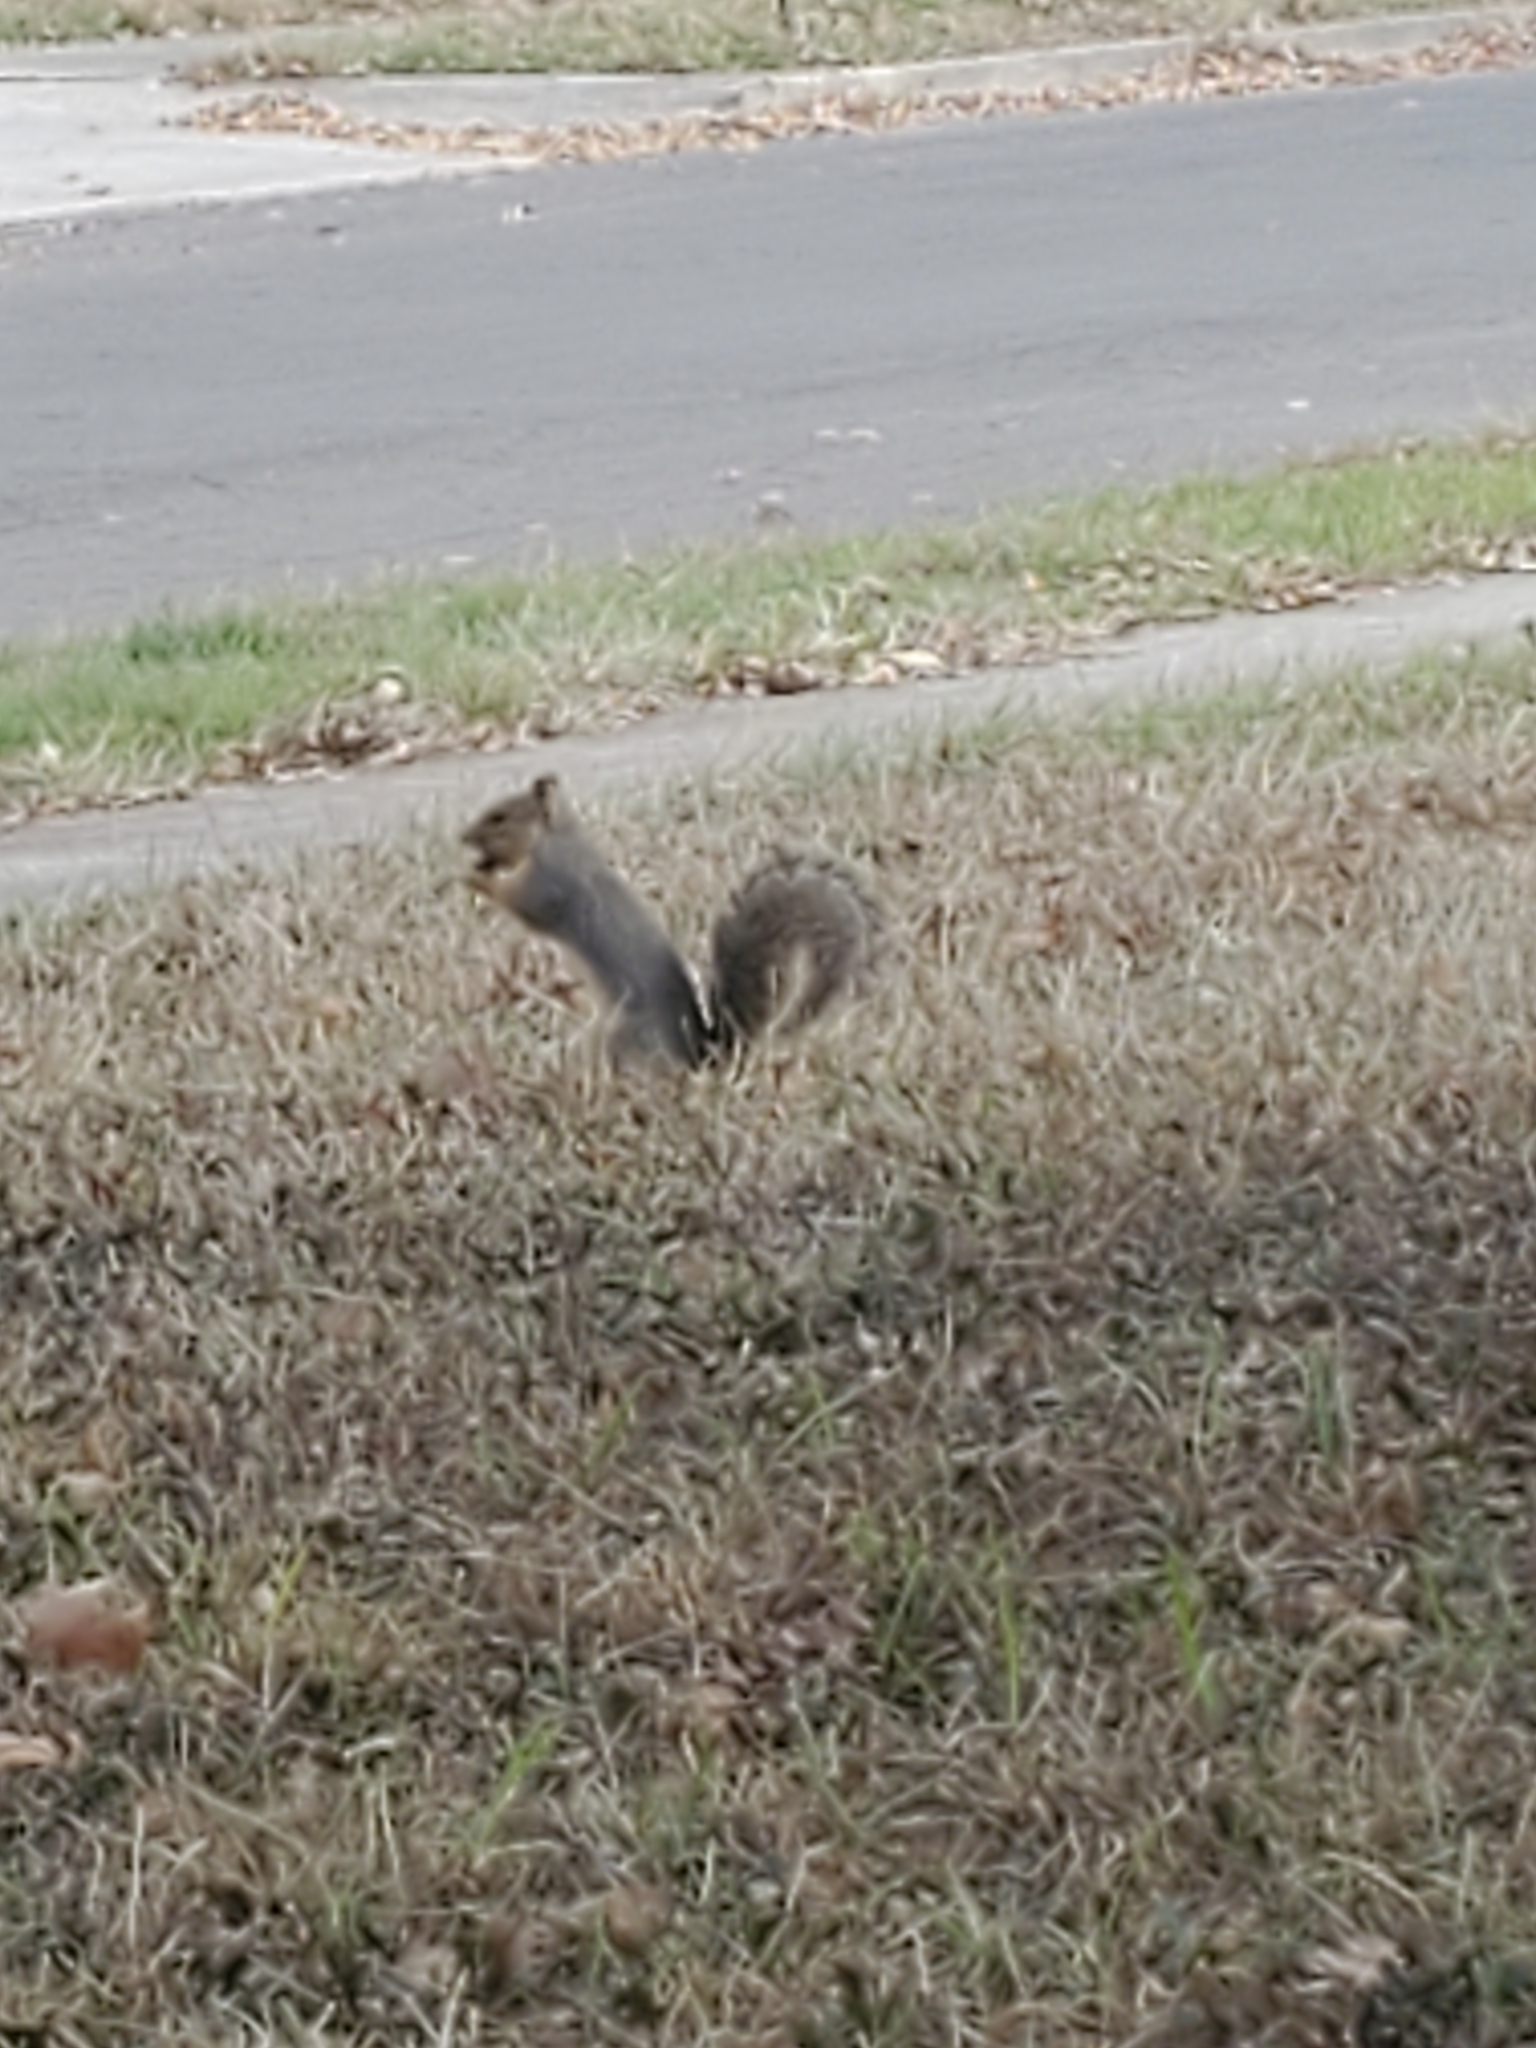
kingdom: Animalia
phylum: Chordata
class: Mammalia
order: Rodentia
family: Sciuridae
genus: Sciurus
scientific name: Sciurus niger
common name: Fox squirrel
